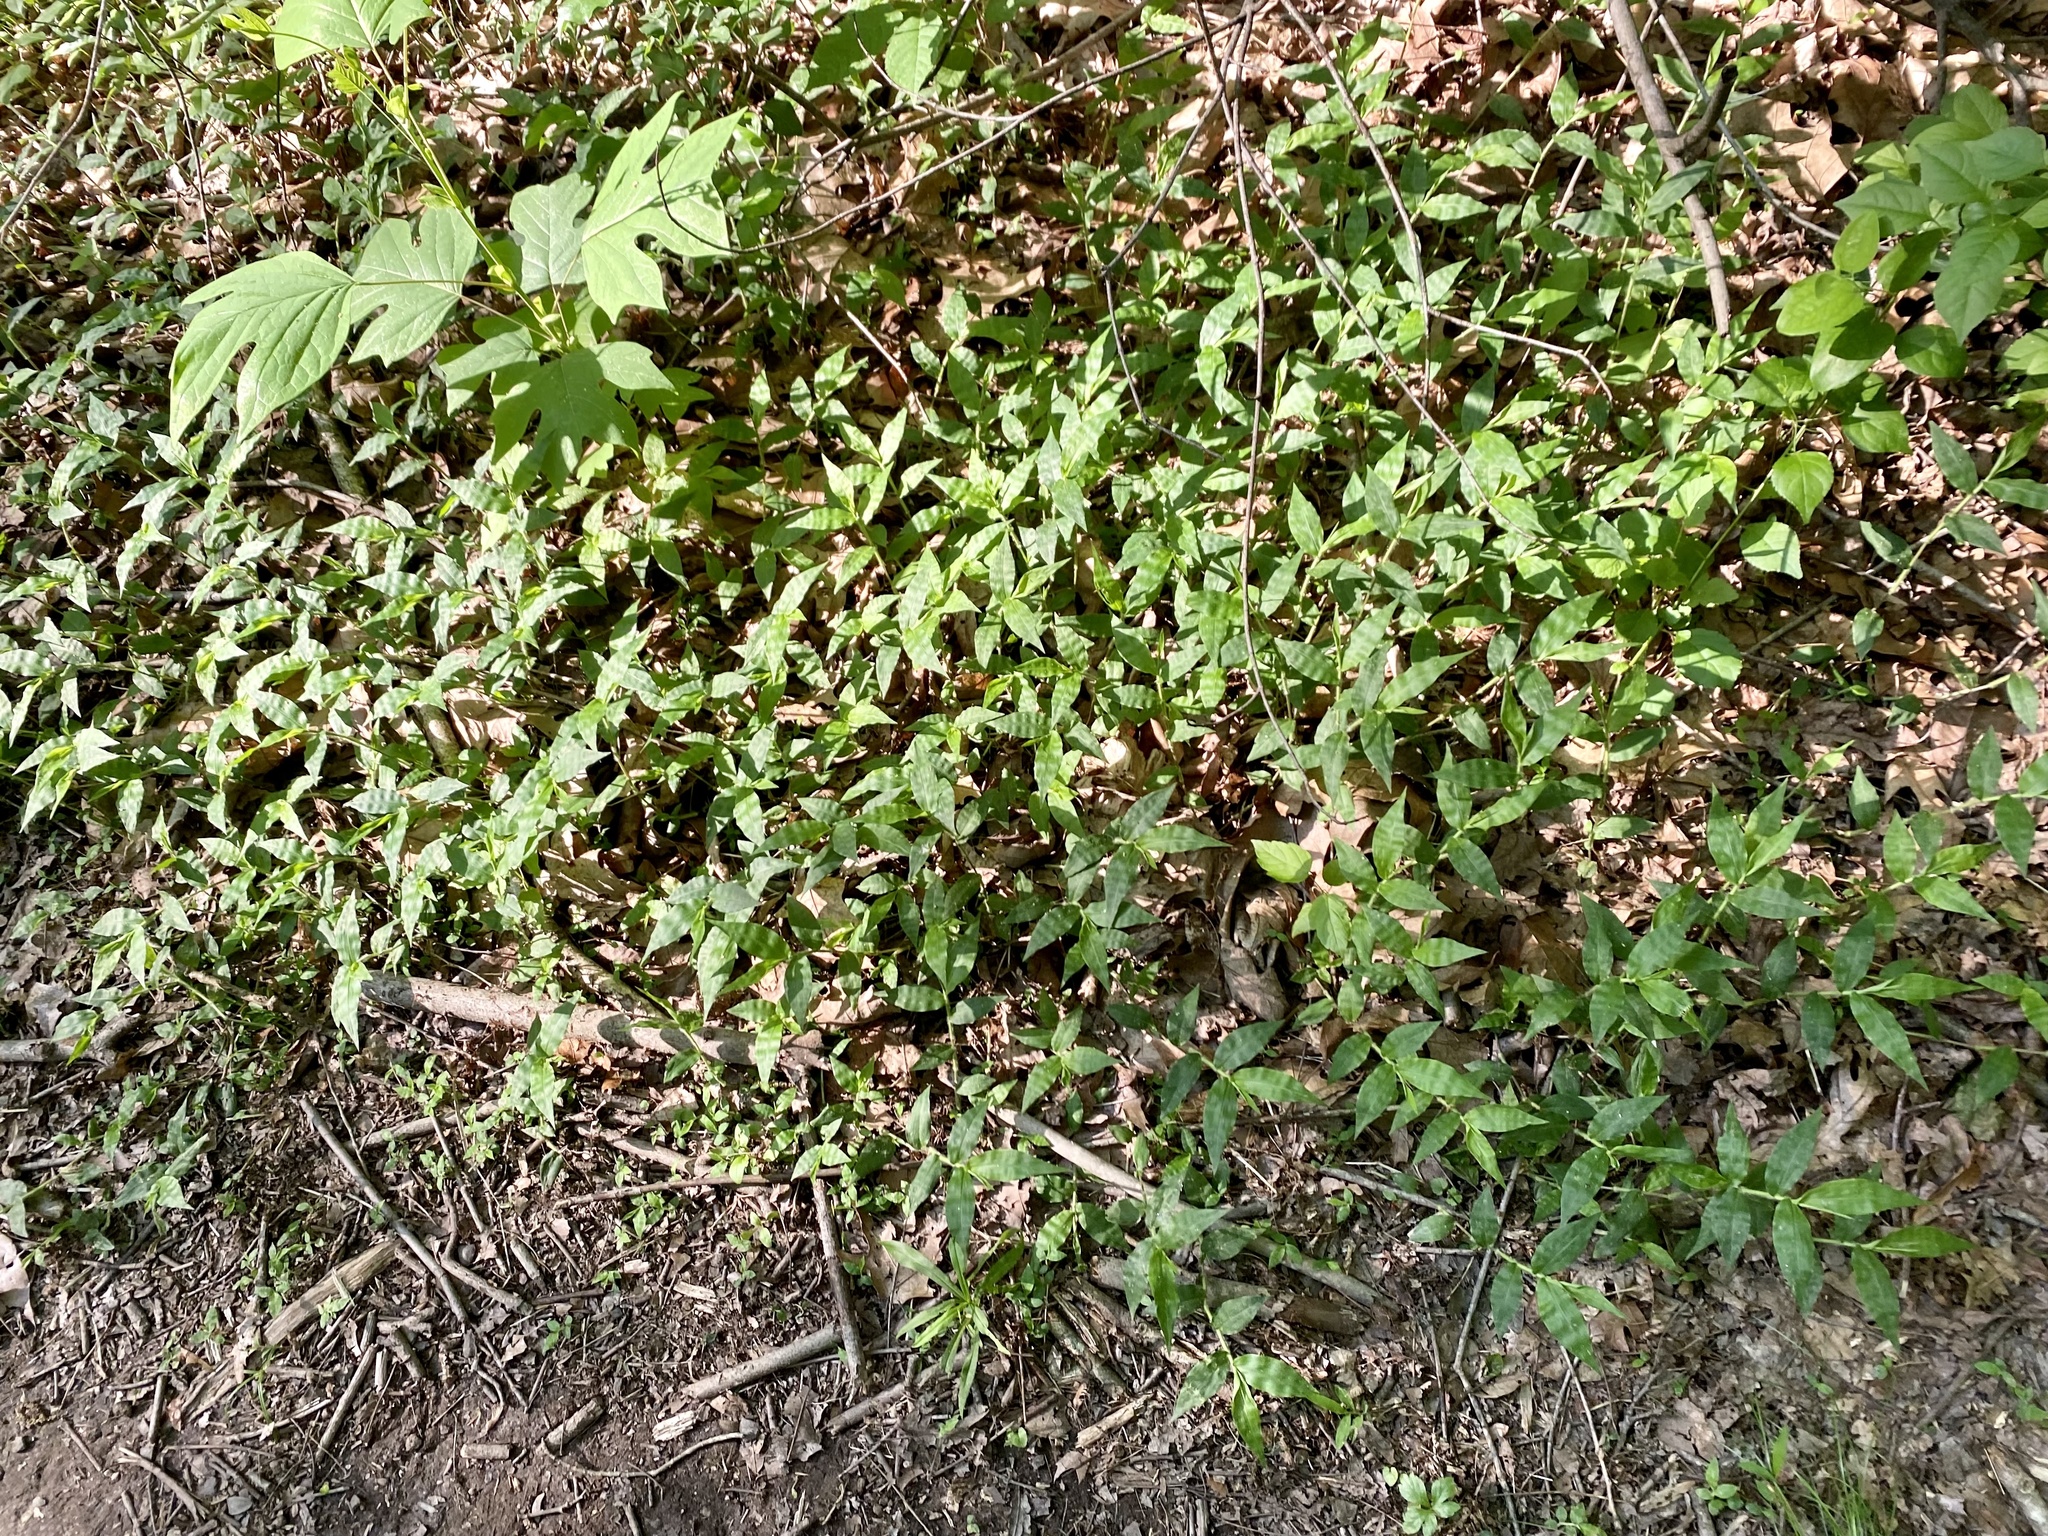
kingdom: Plantae
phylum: Tracheophyta
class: Liliopsida
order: Poales
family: Poaceae
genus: Oplismenus
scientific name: Oplismenus undulatifolius
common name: Wavyleaf basketgrass
